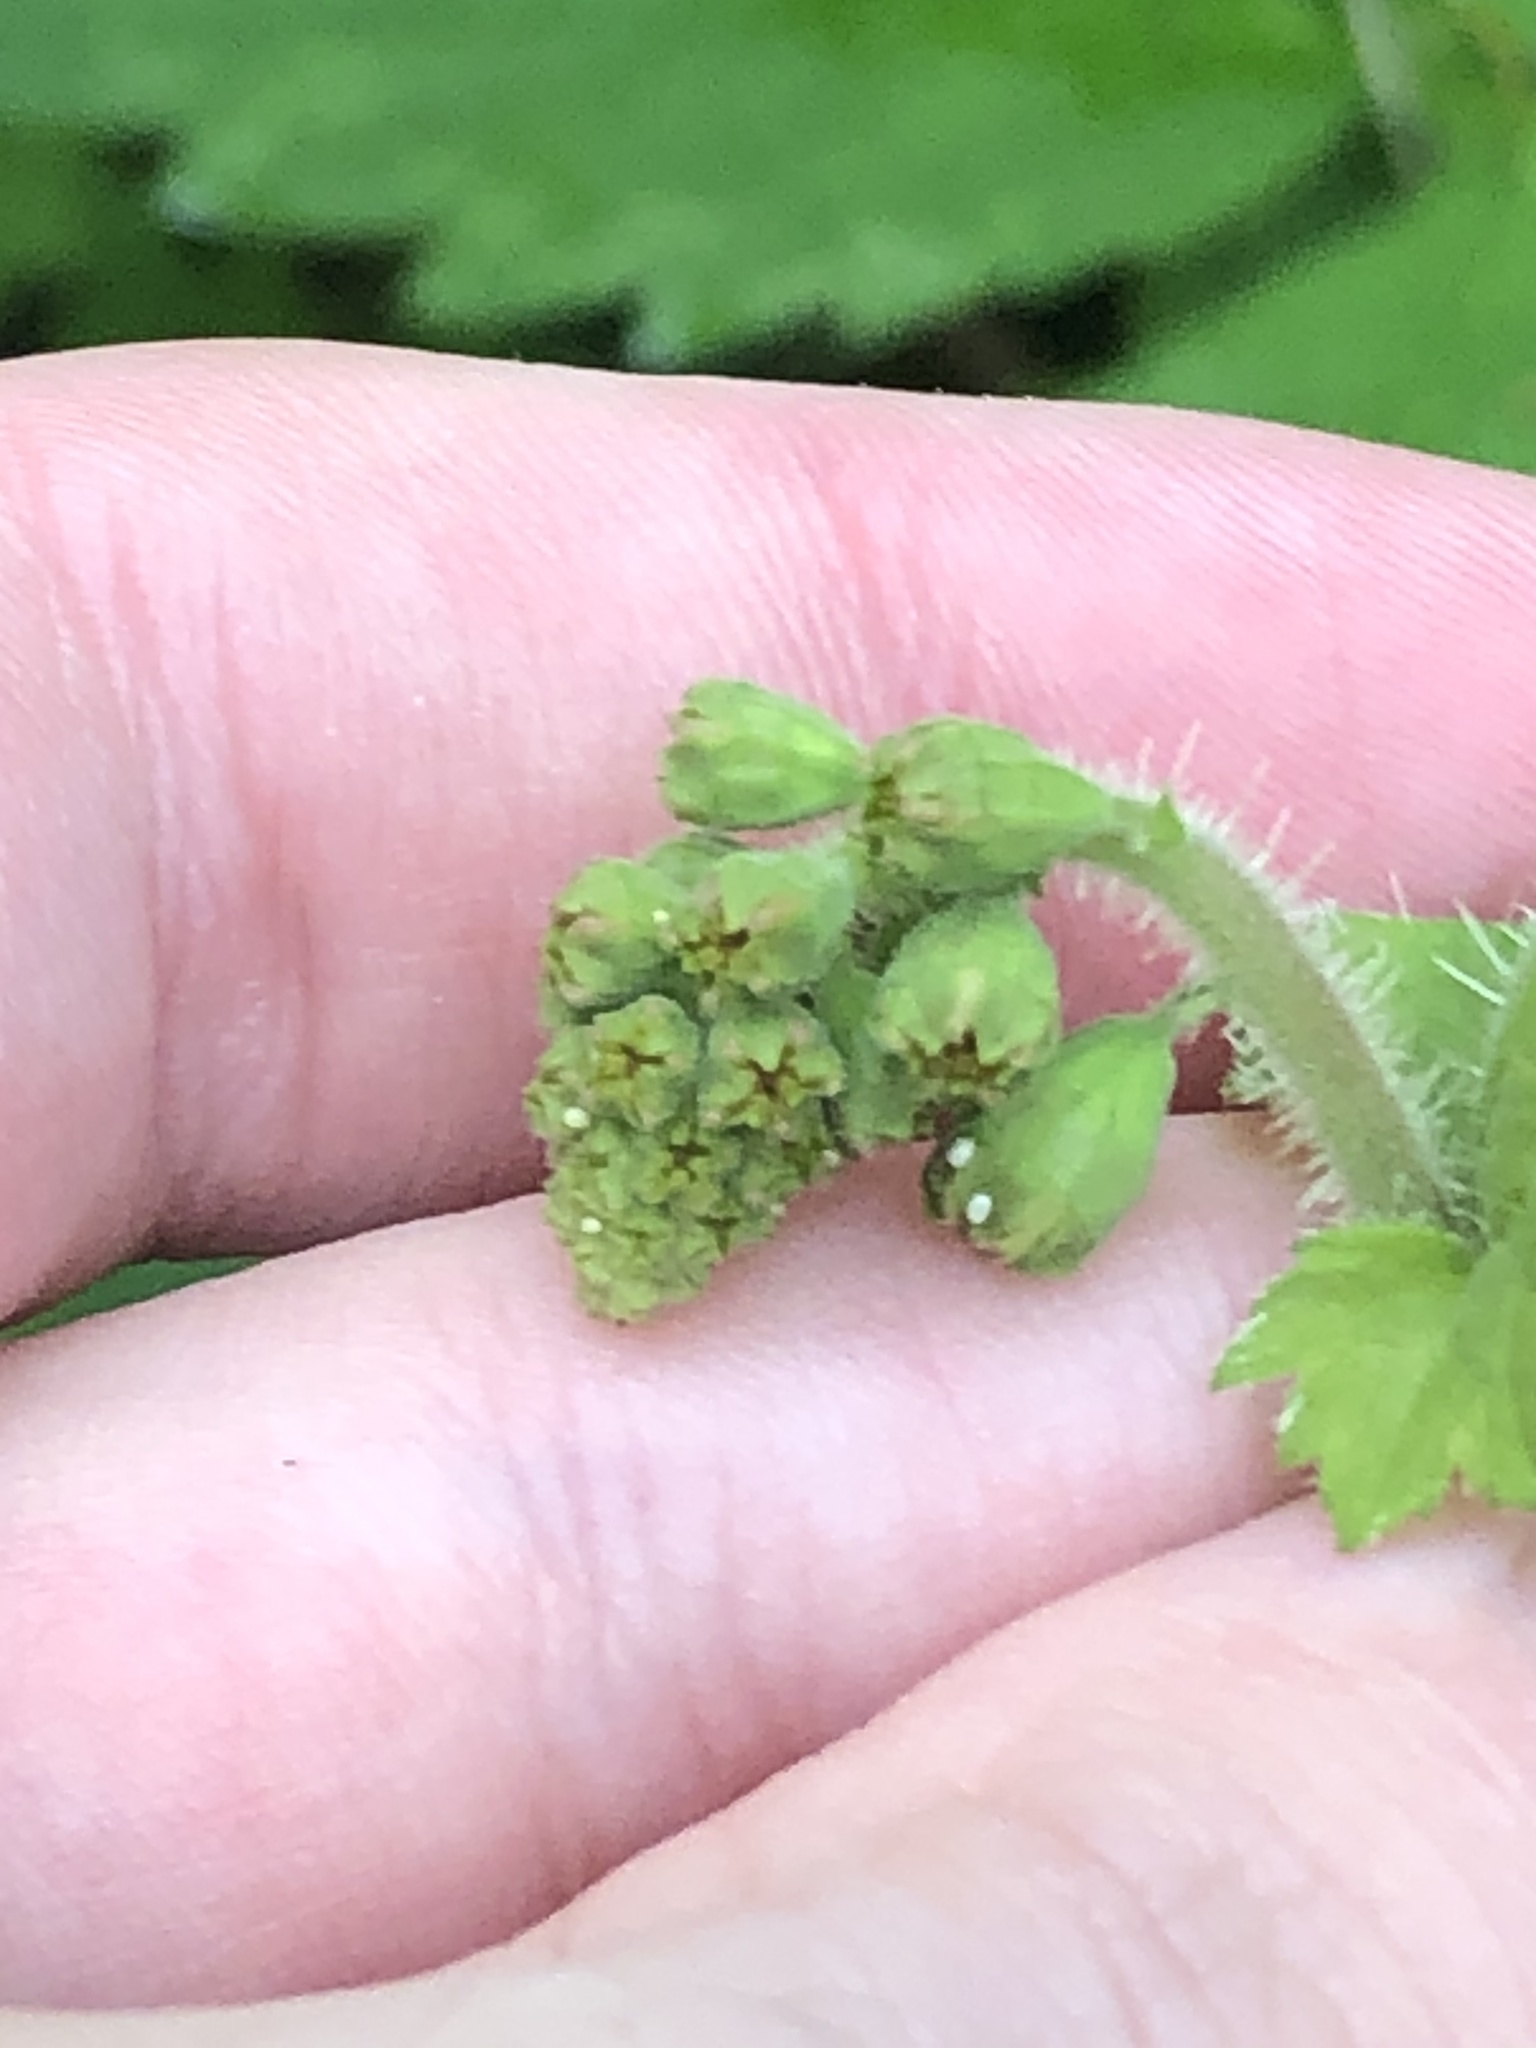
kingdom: Plantae
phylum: Tracheophyta
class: Magnoliopsida
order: Saxifragales
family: Saxifragaceae
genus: Tellima
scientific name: Tellima grandiflora
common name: Fringecups
